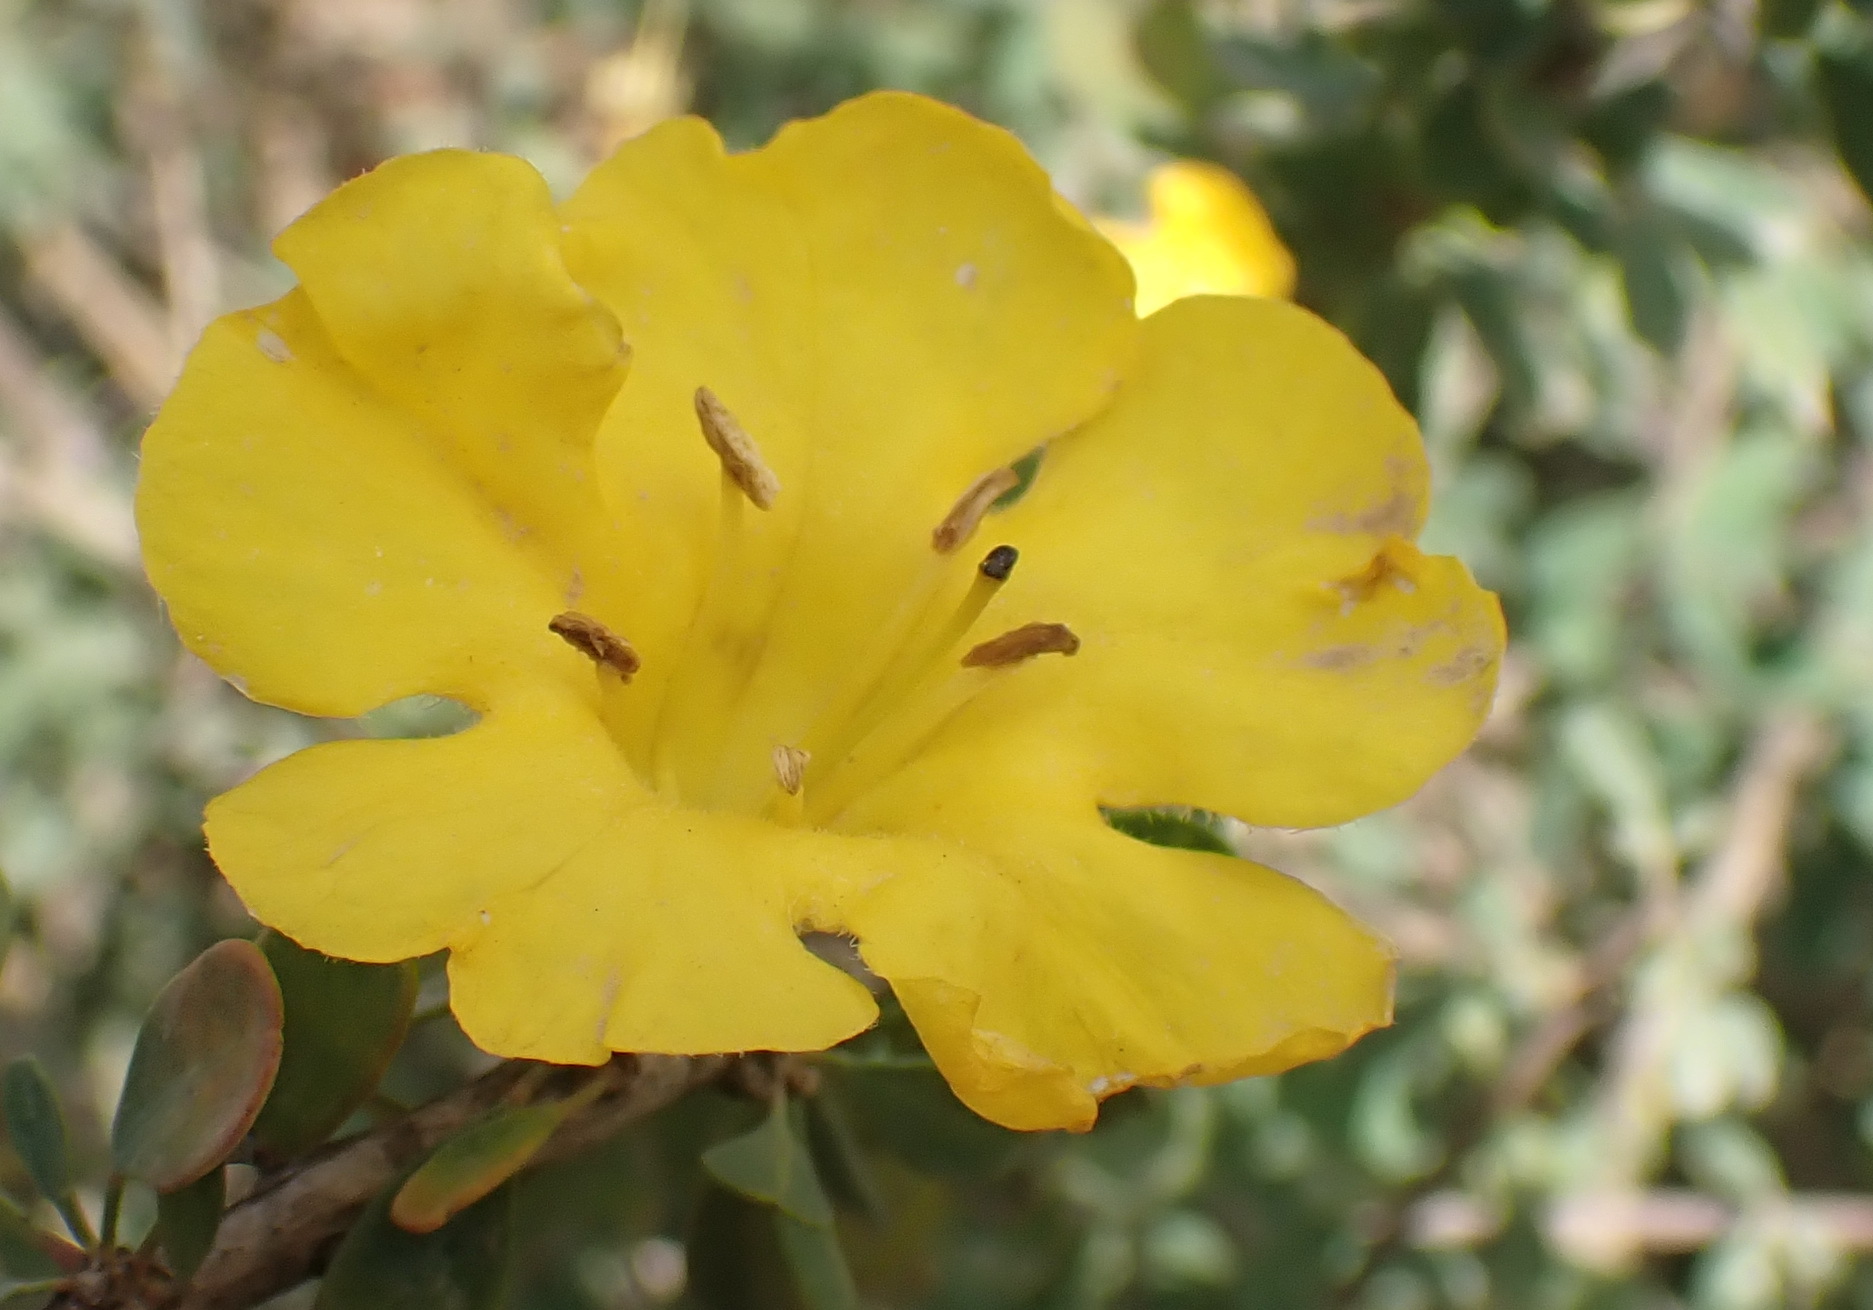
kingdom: Plantae
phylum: Tracheophyta
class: Magnoliopsida
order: Lamiales
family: Bignoniaceae
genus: Rhigozum
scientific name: Rhigozum obovatum
